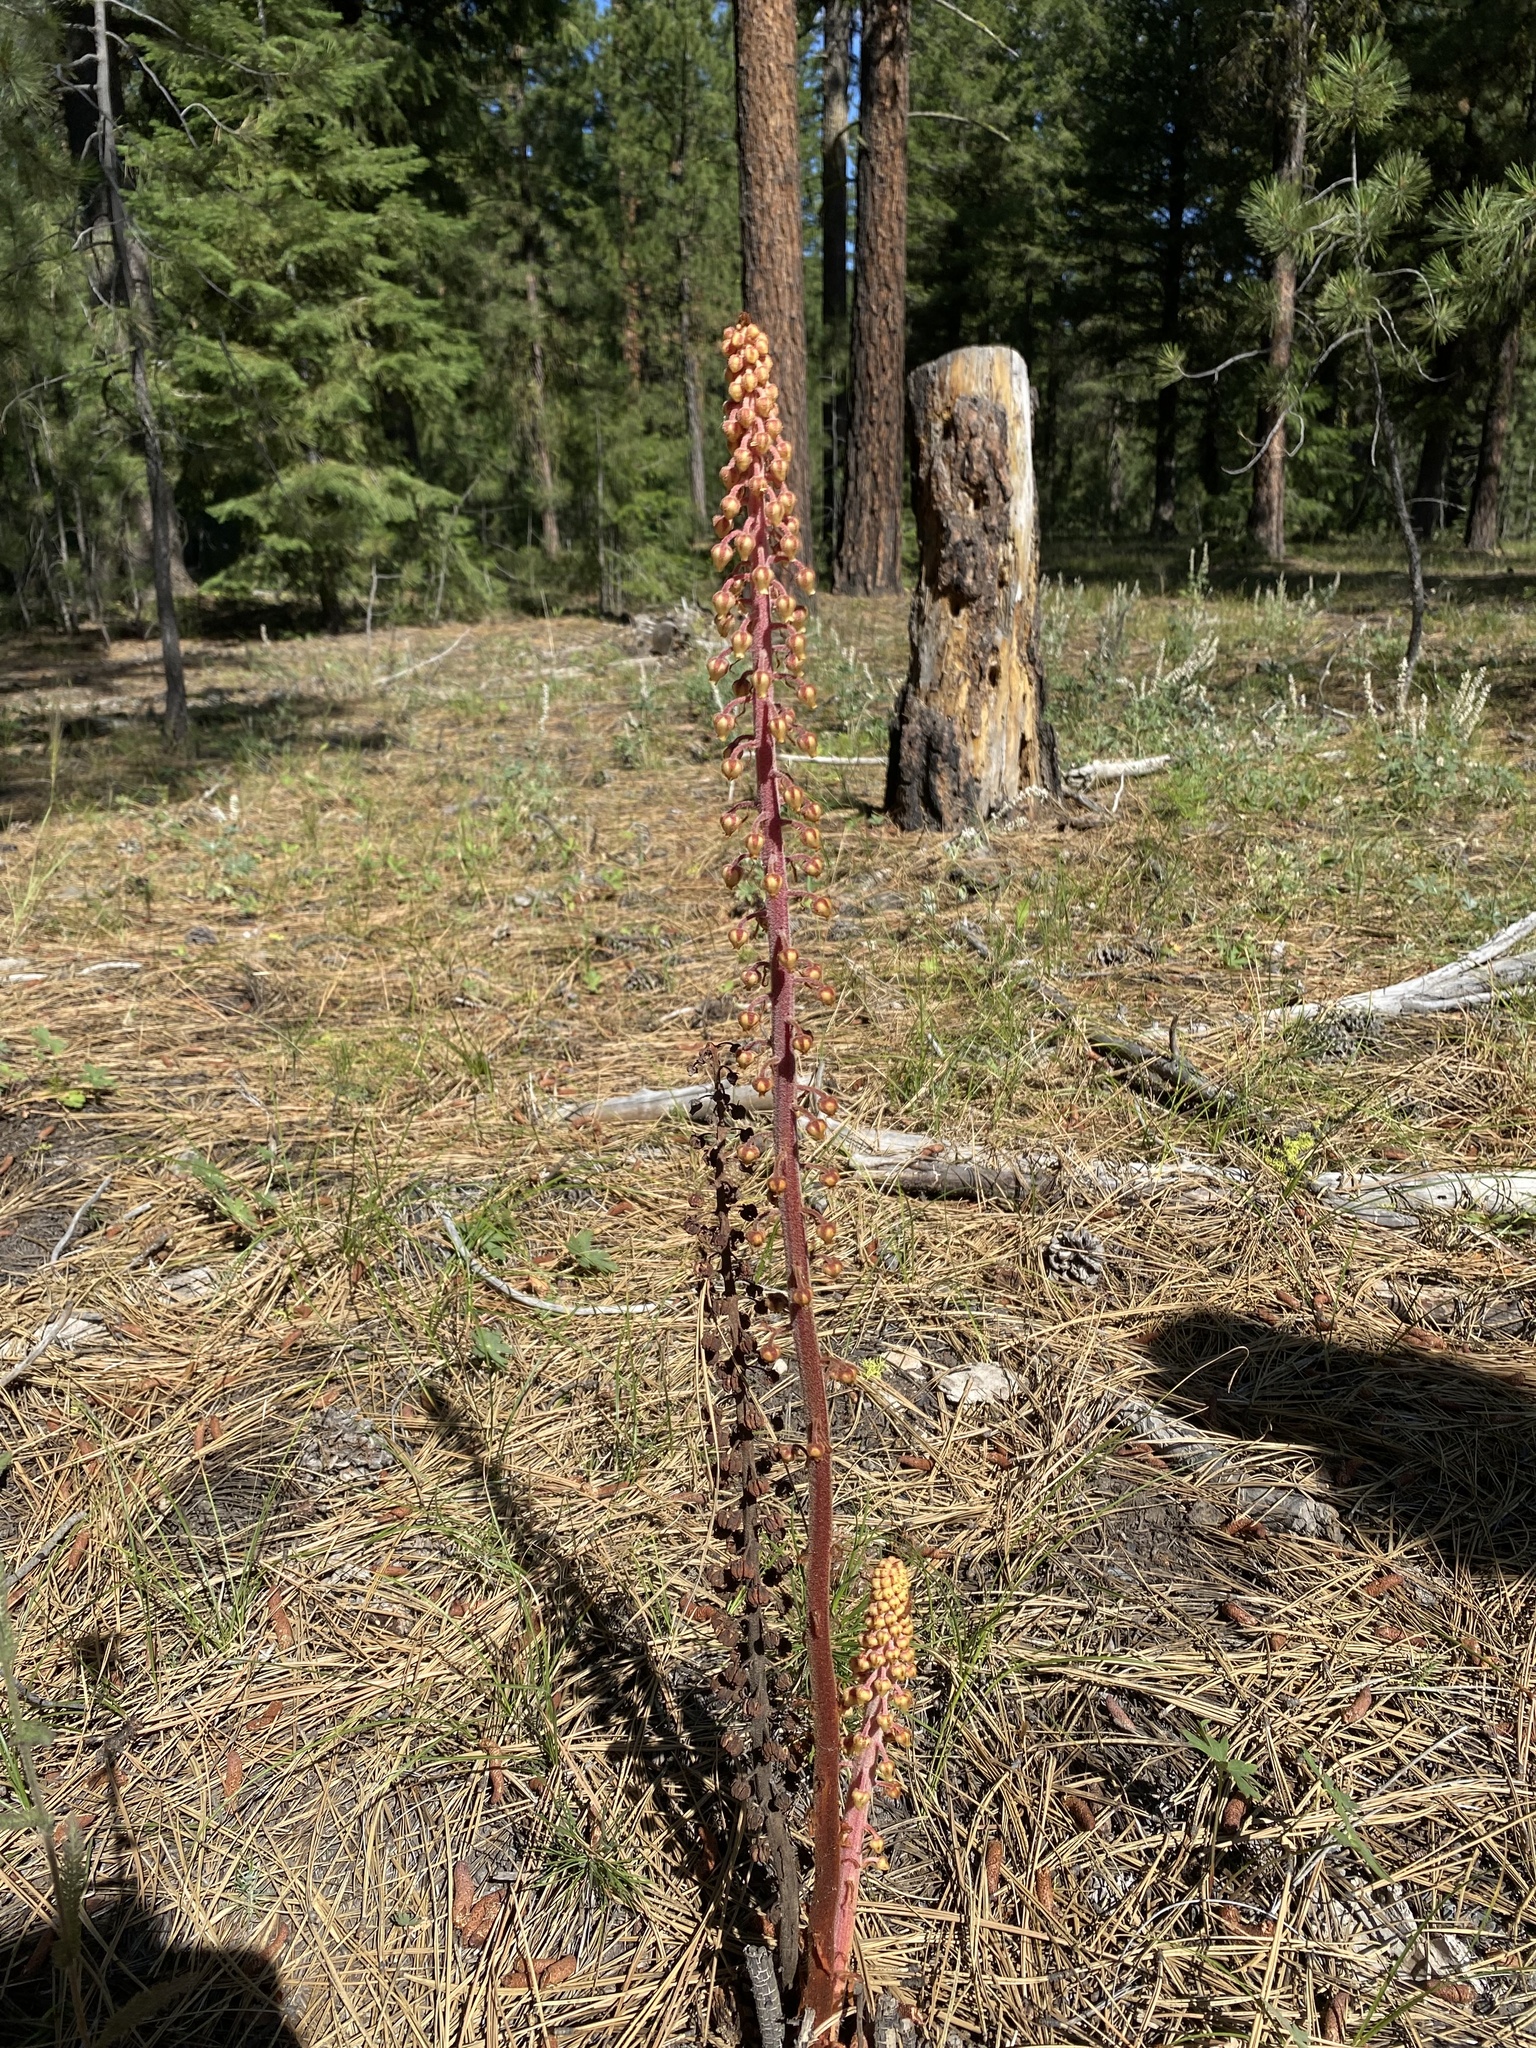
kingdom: Plantae
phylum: Tracheophyta
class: Magnoliopsida
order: Ericales
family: Ericaceae
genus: Pterospora
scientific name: Pterospora andromedea
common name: Giant bird's-nest
